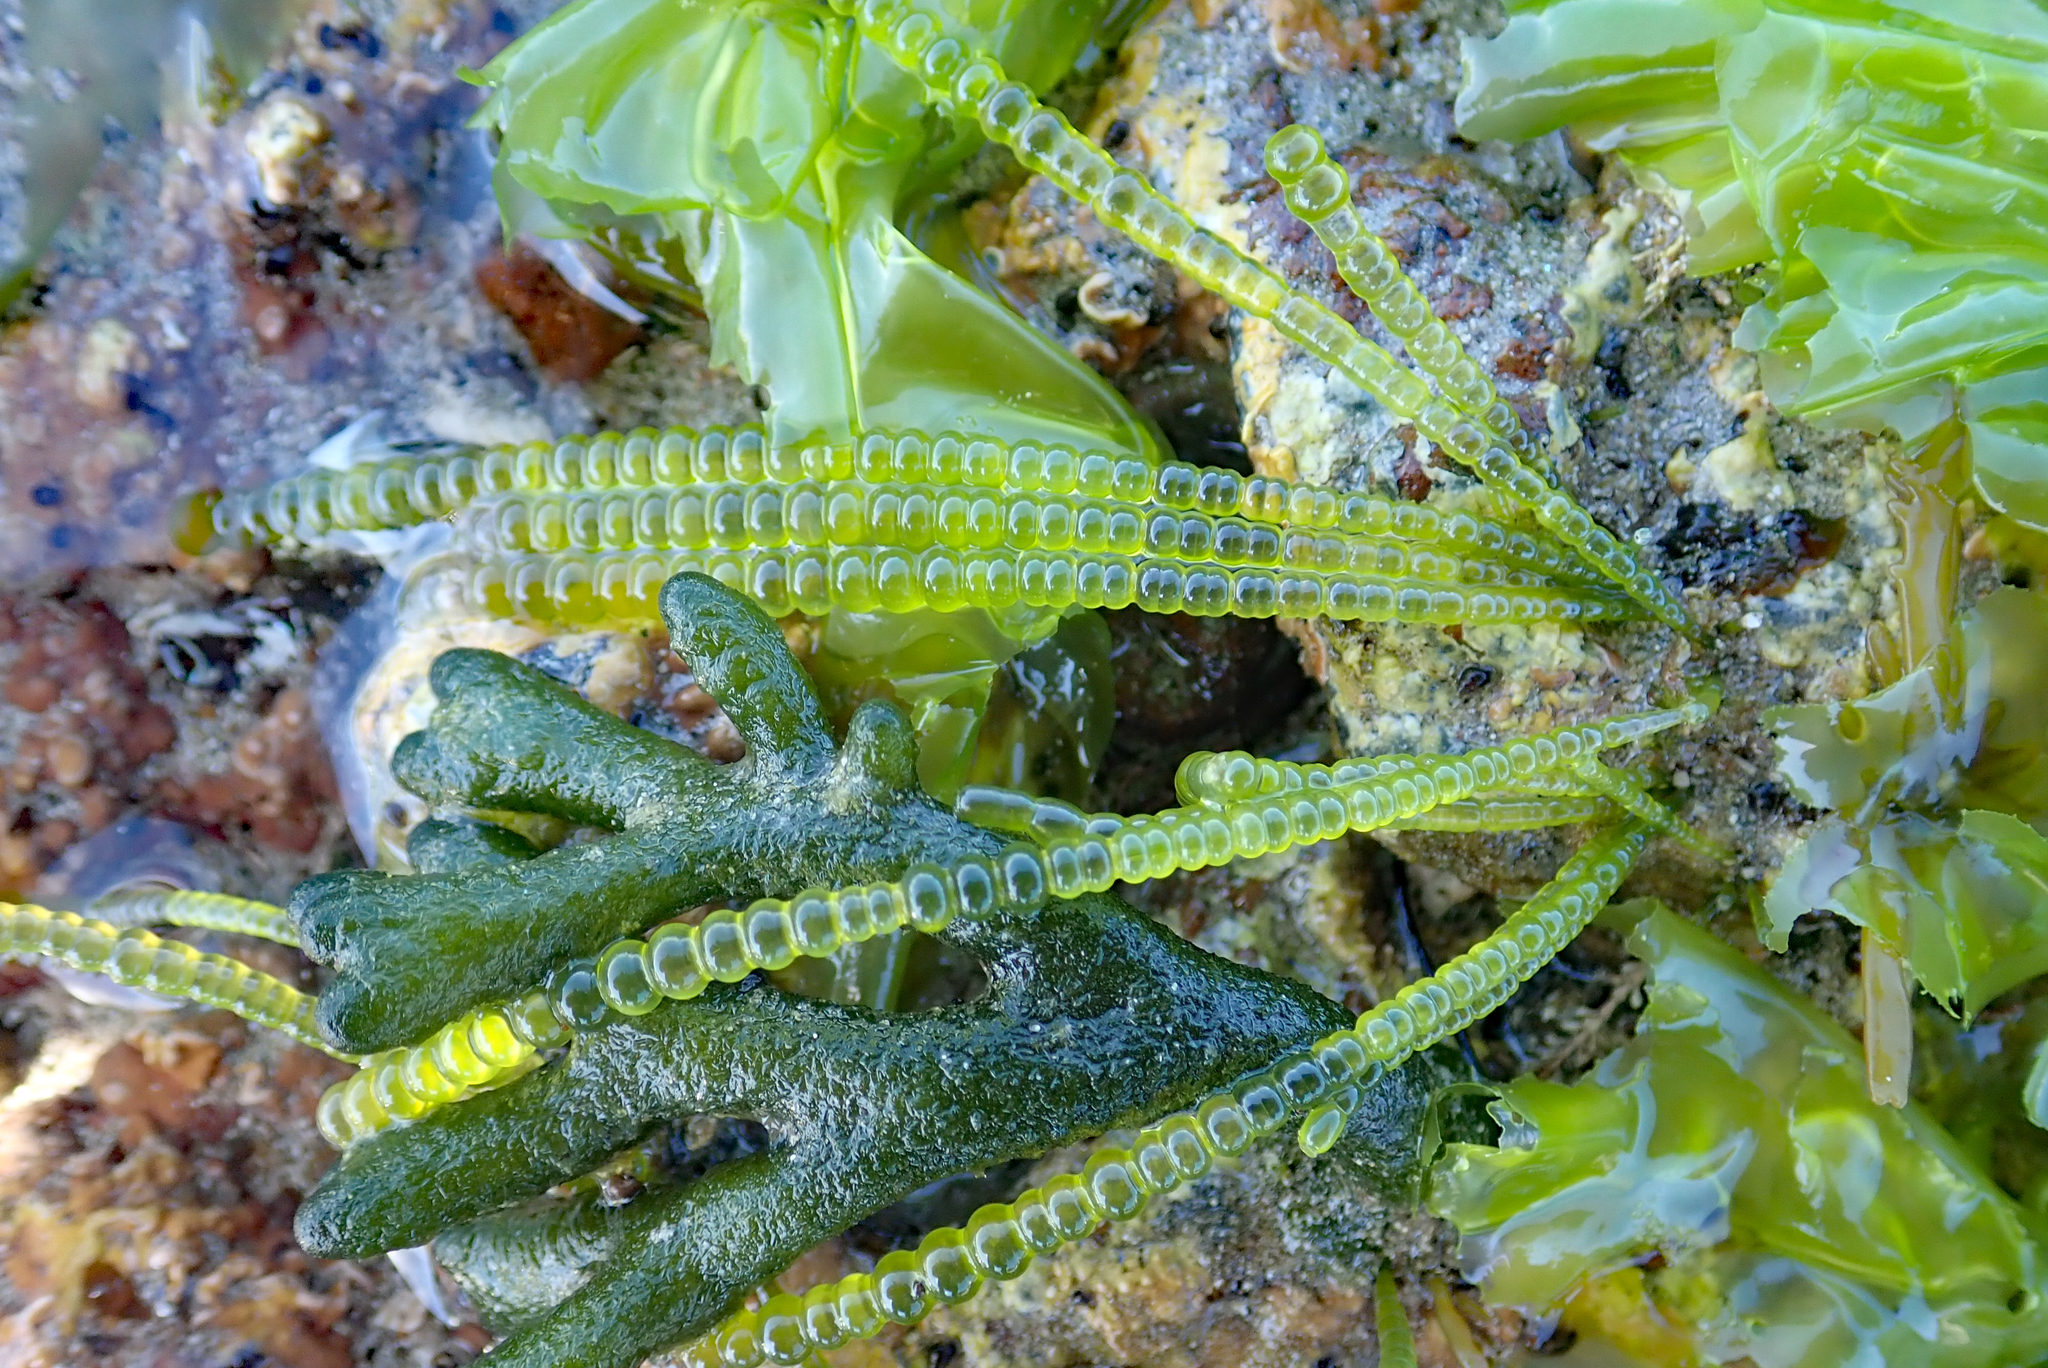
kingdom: Plantae
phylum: Chlorophyta
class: Ulvophyceae
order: Cladophorales
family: Cladophoraceae
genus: Chaetomorpha
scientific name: Chaetomorpha coliformis
